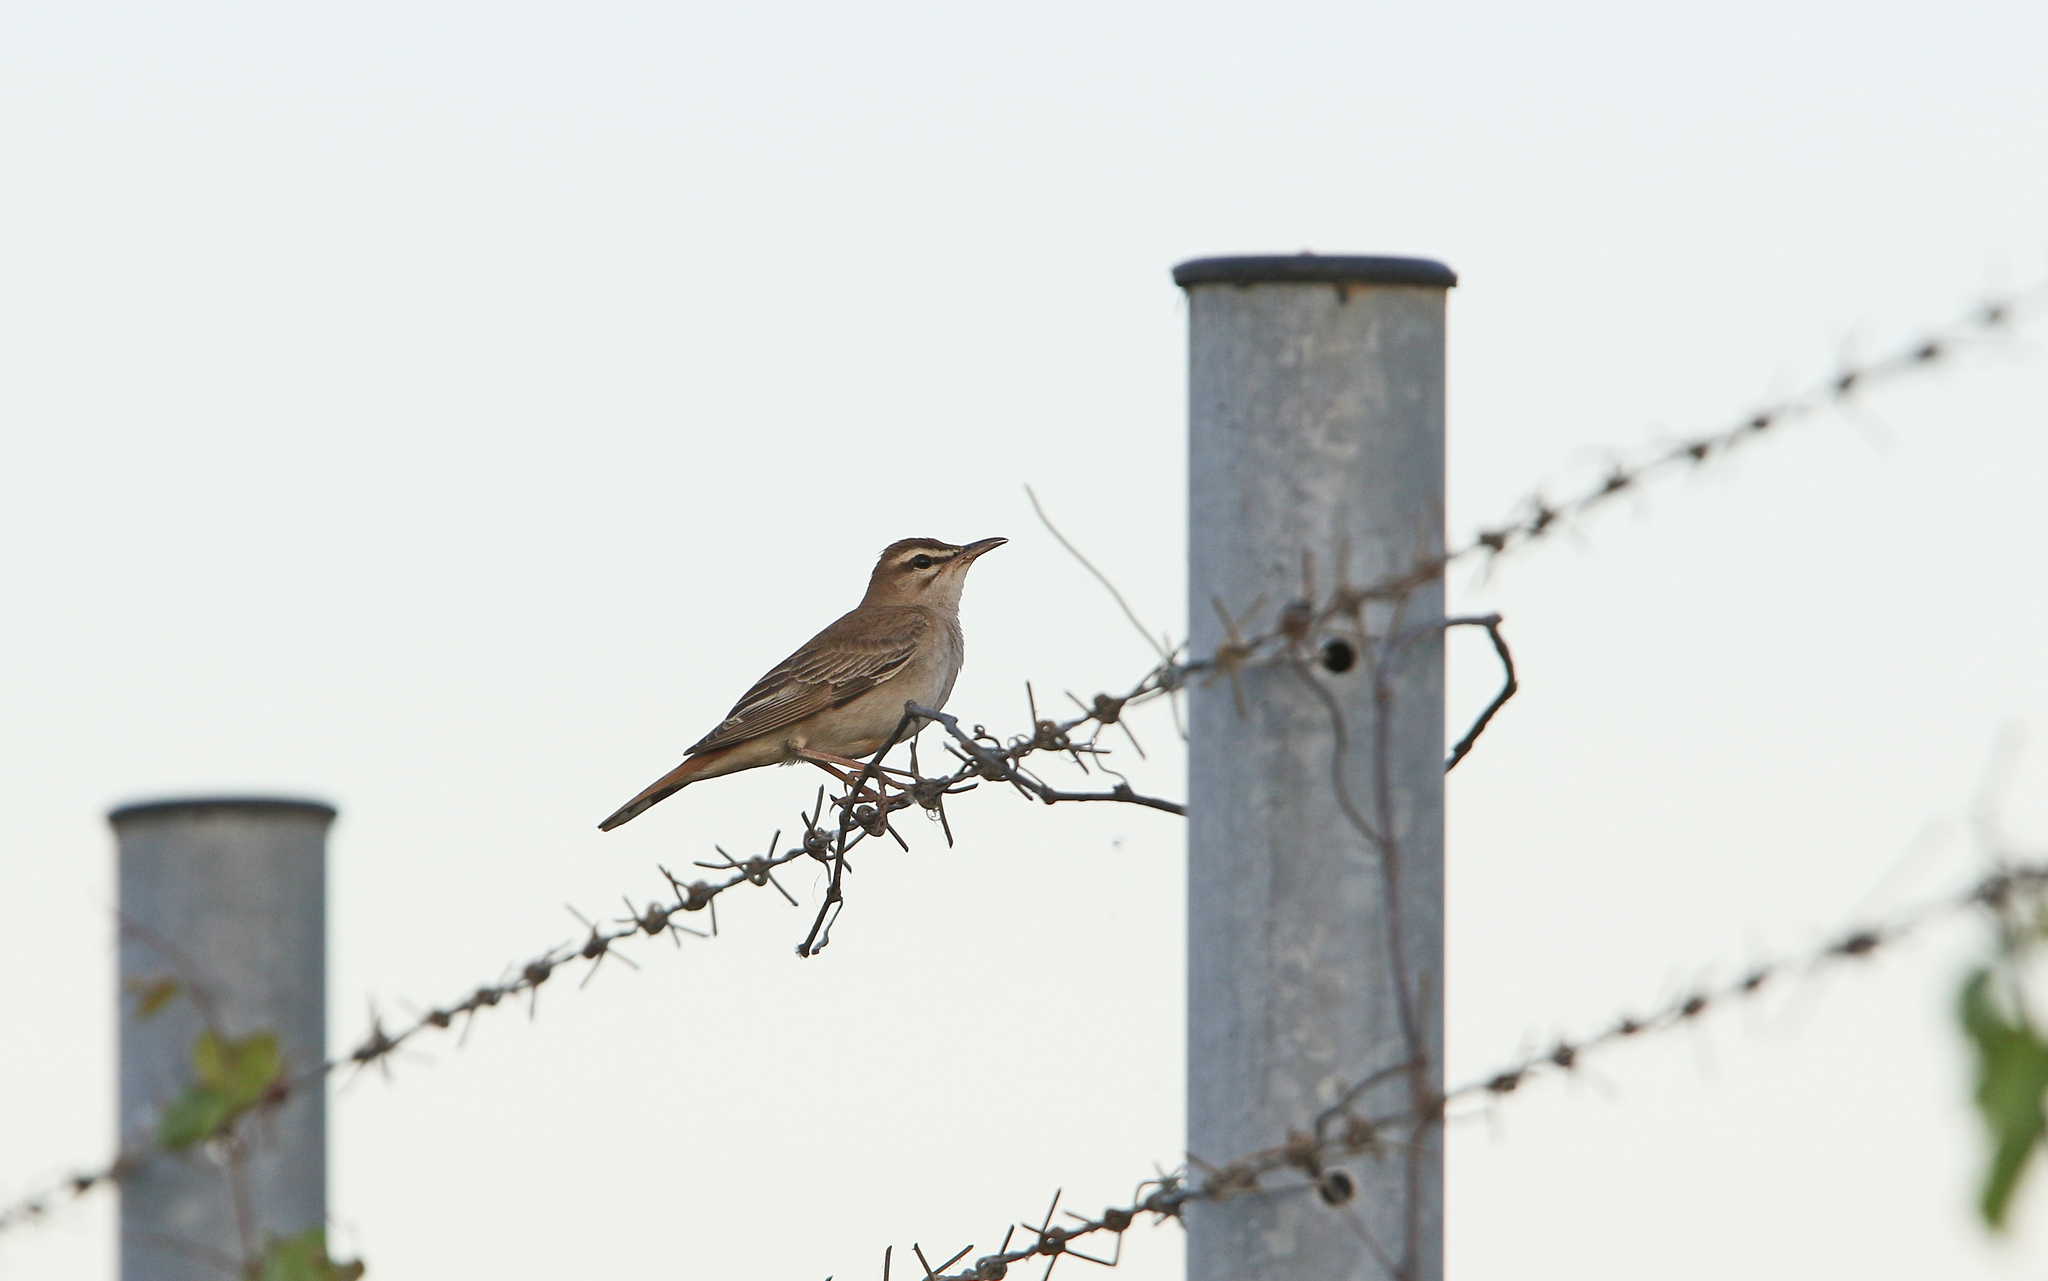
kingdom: Animalia
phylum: Chordata
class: Aves
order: Passeriformes
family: Muscicapidae
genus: Erythropygia
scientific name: Erythropygia galactotes
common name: Rufous-tailed scrub robin
